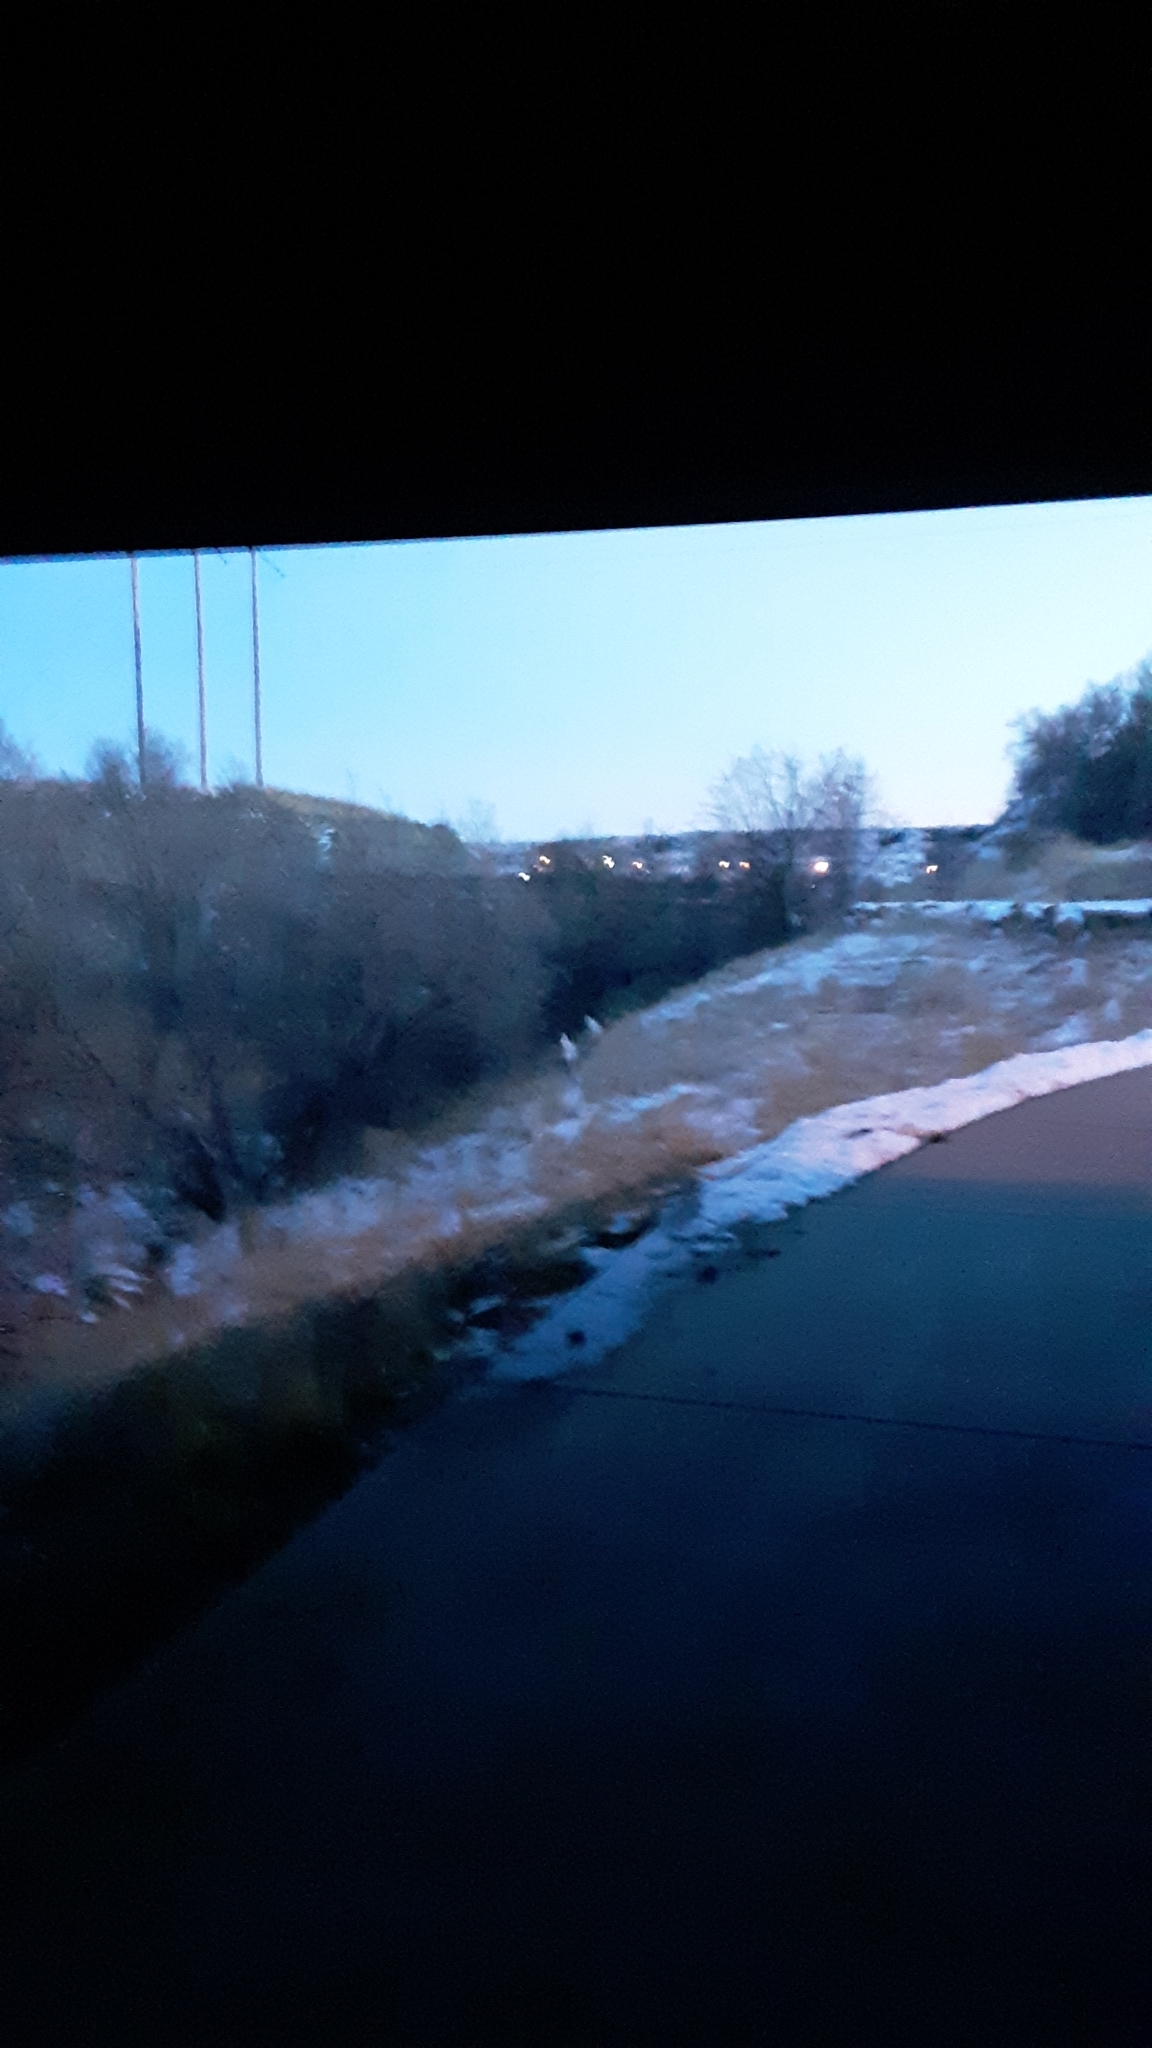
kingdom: Animalia
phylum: Chordata
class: Mammalia
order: Artiodactyla
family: Cervidae
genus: Odocoileus
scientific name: Odocoileus virginianus
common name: White-tailed deer
